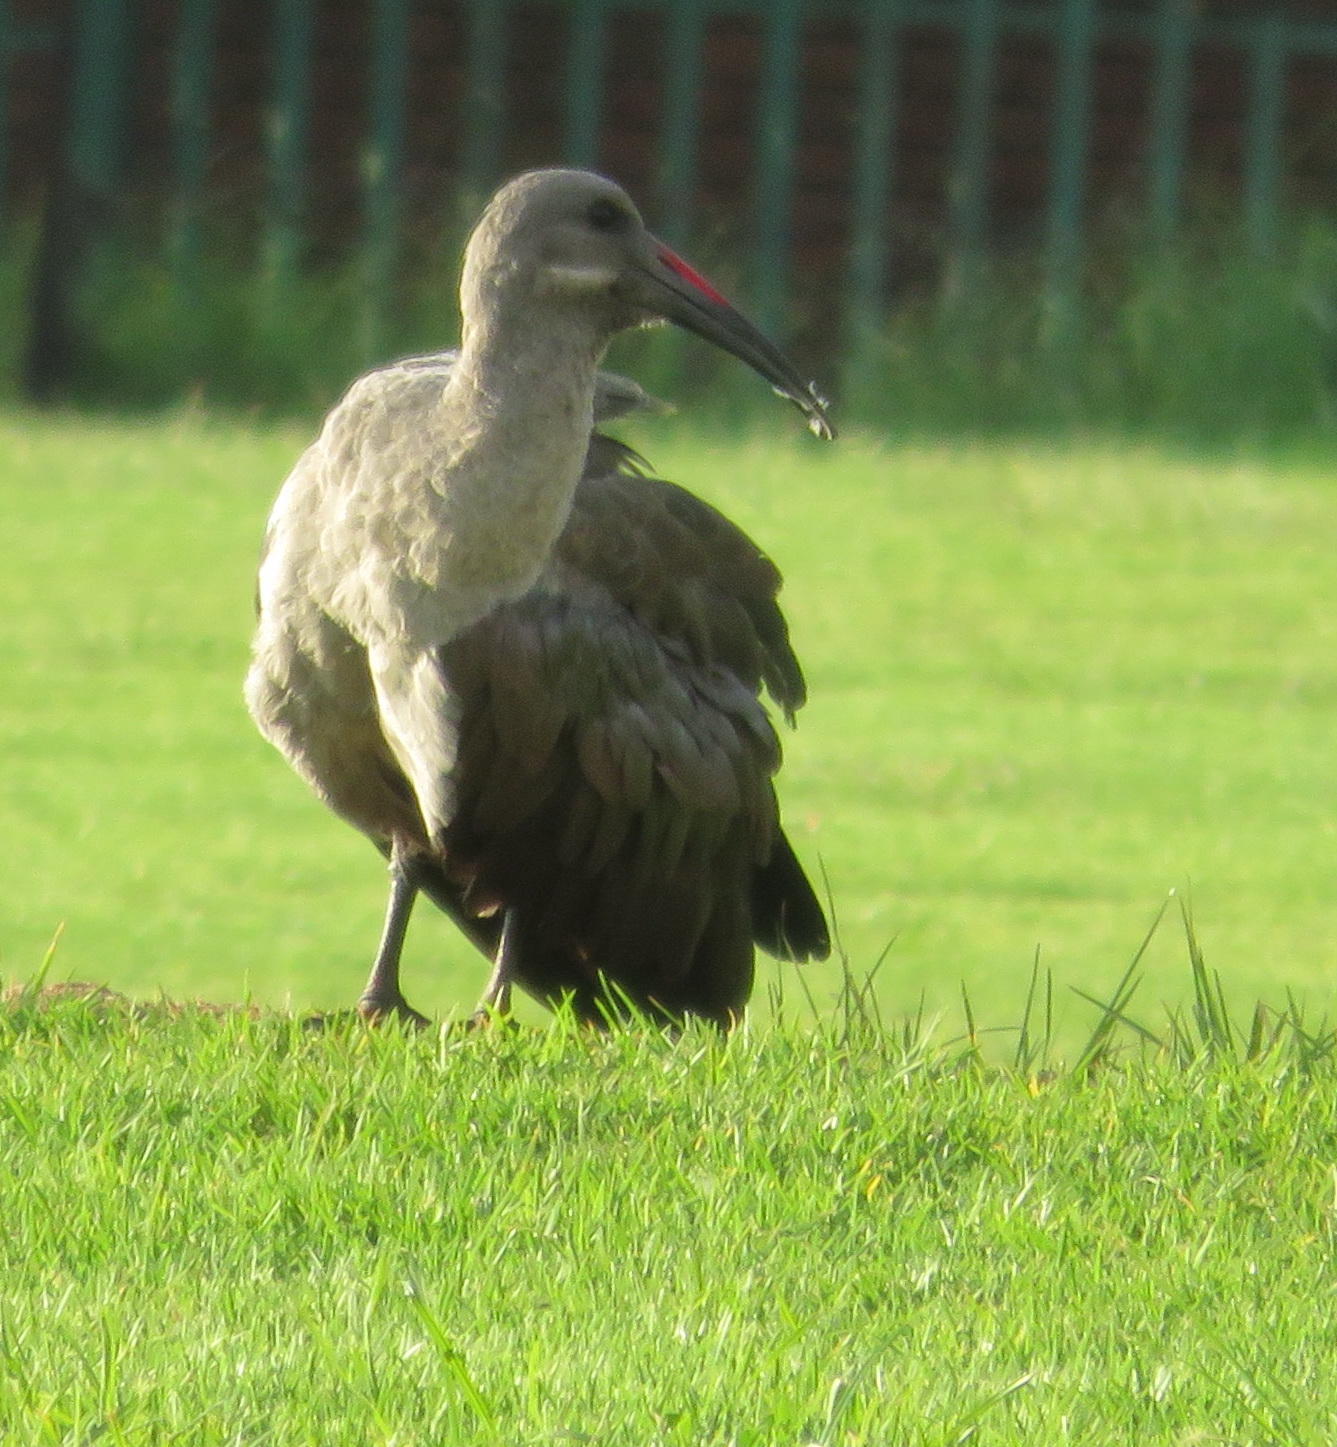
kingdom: Animalia
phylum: Chordata
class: Aves
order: Pelecaniformes
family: Threskiornithidae
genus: Bostrychia
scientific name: Bostrychia hagedash
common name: Hadada ibis
